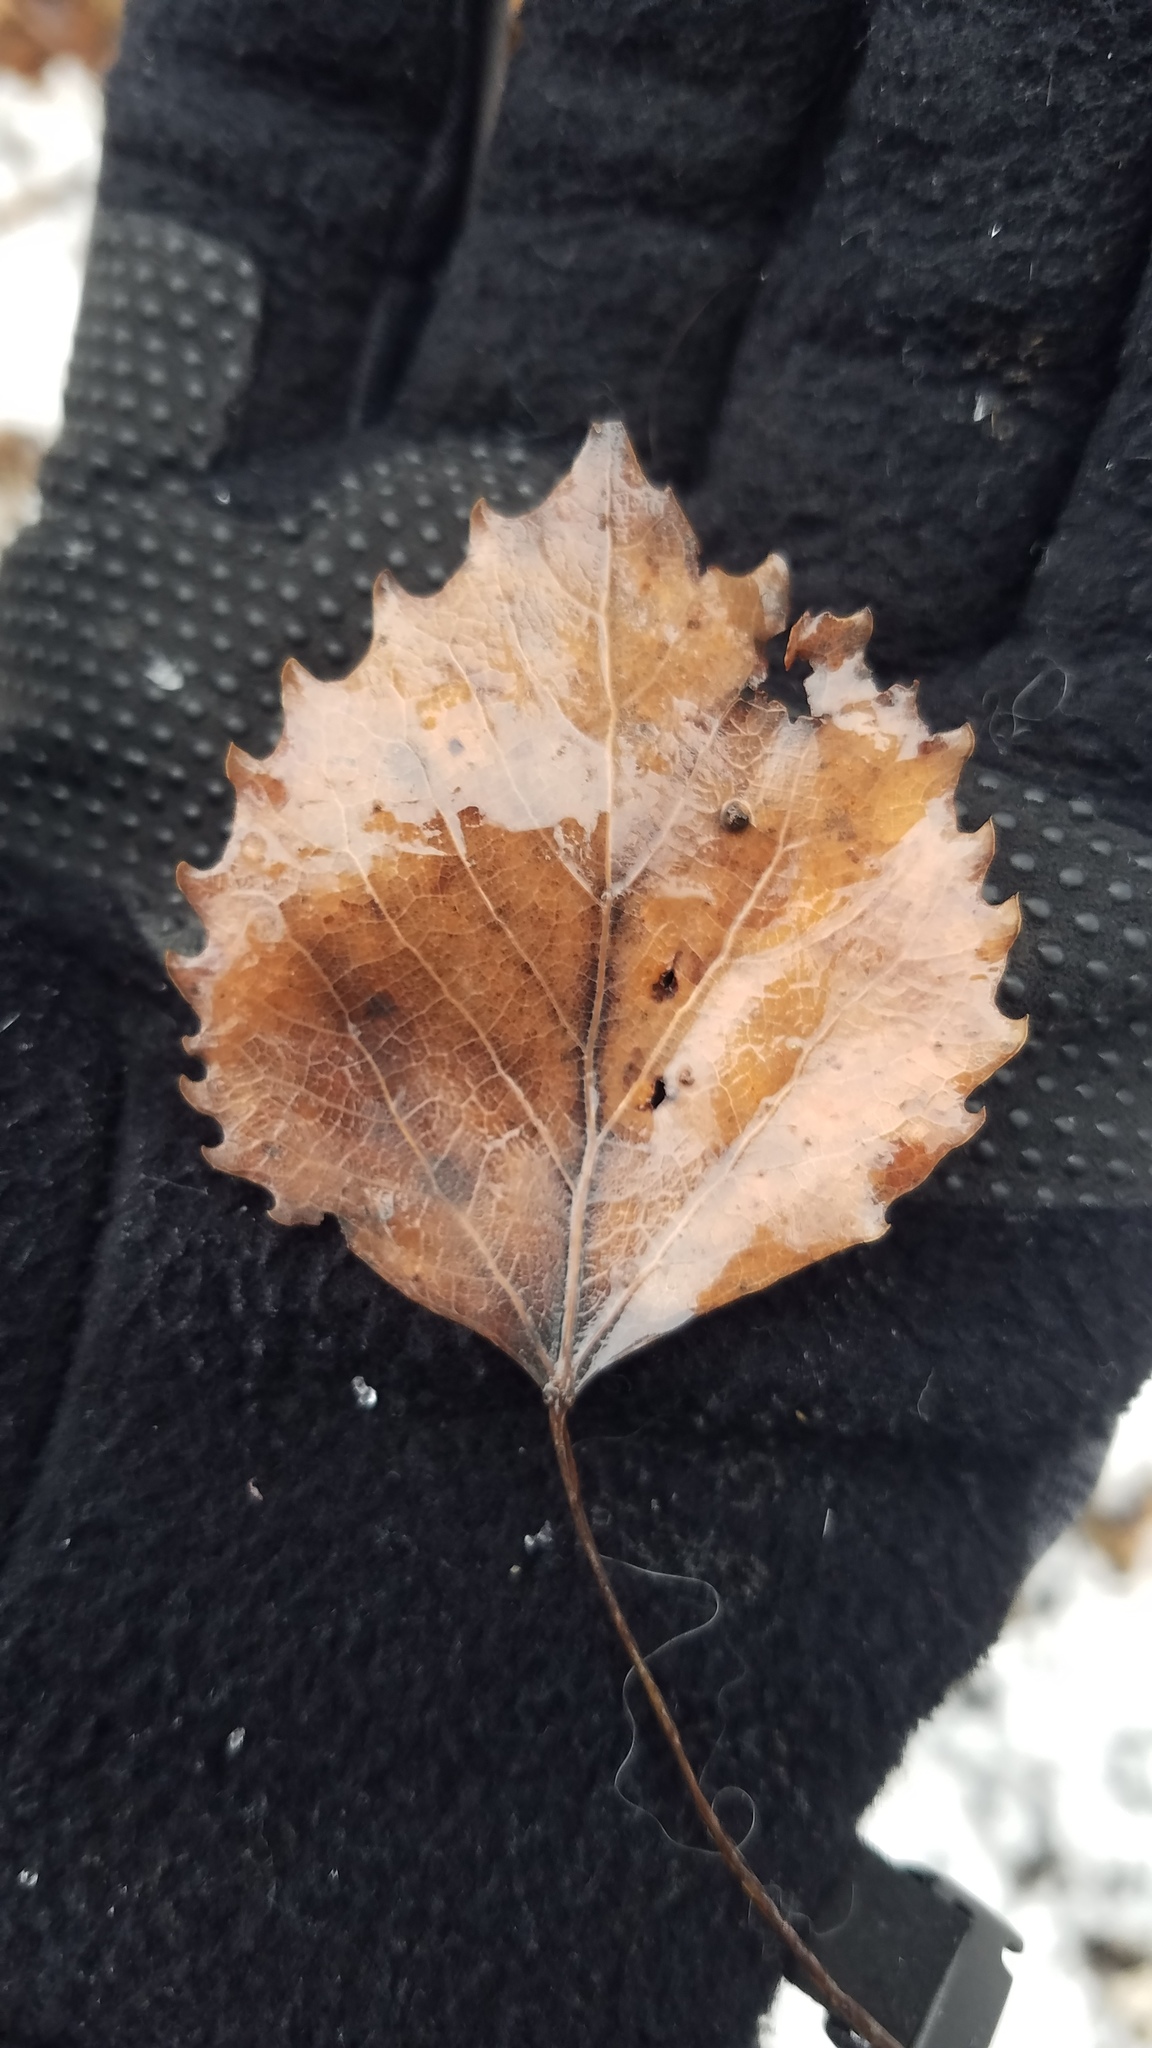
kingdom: Plantae
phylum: Tracheophyta
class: Magnoliopsida
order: Malpighiales
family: Salicaceae
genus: Populus
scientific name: Populus grandidentata
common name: Bigtooth aspen
